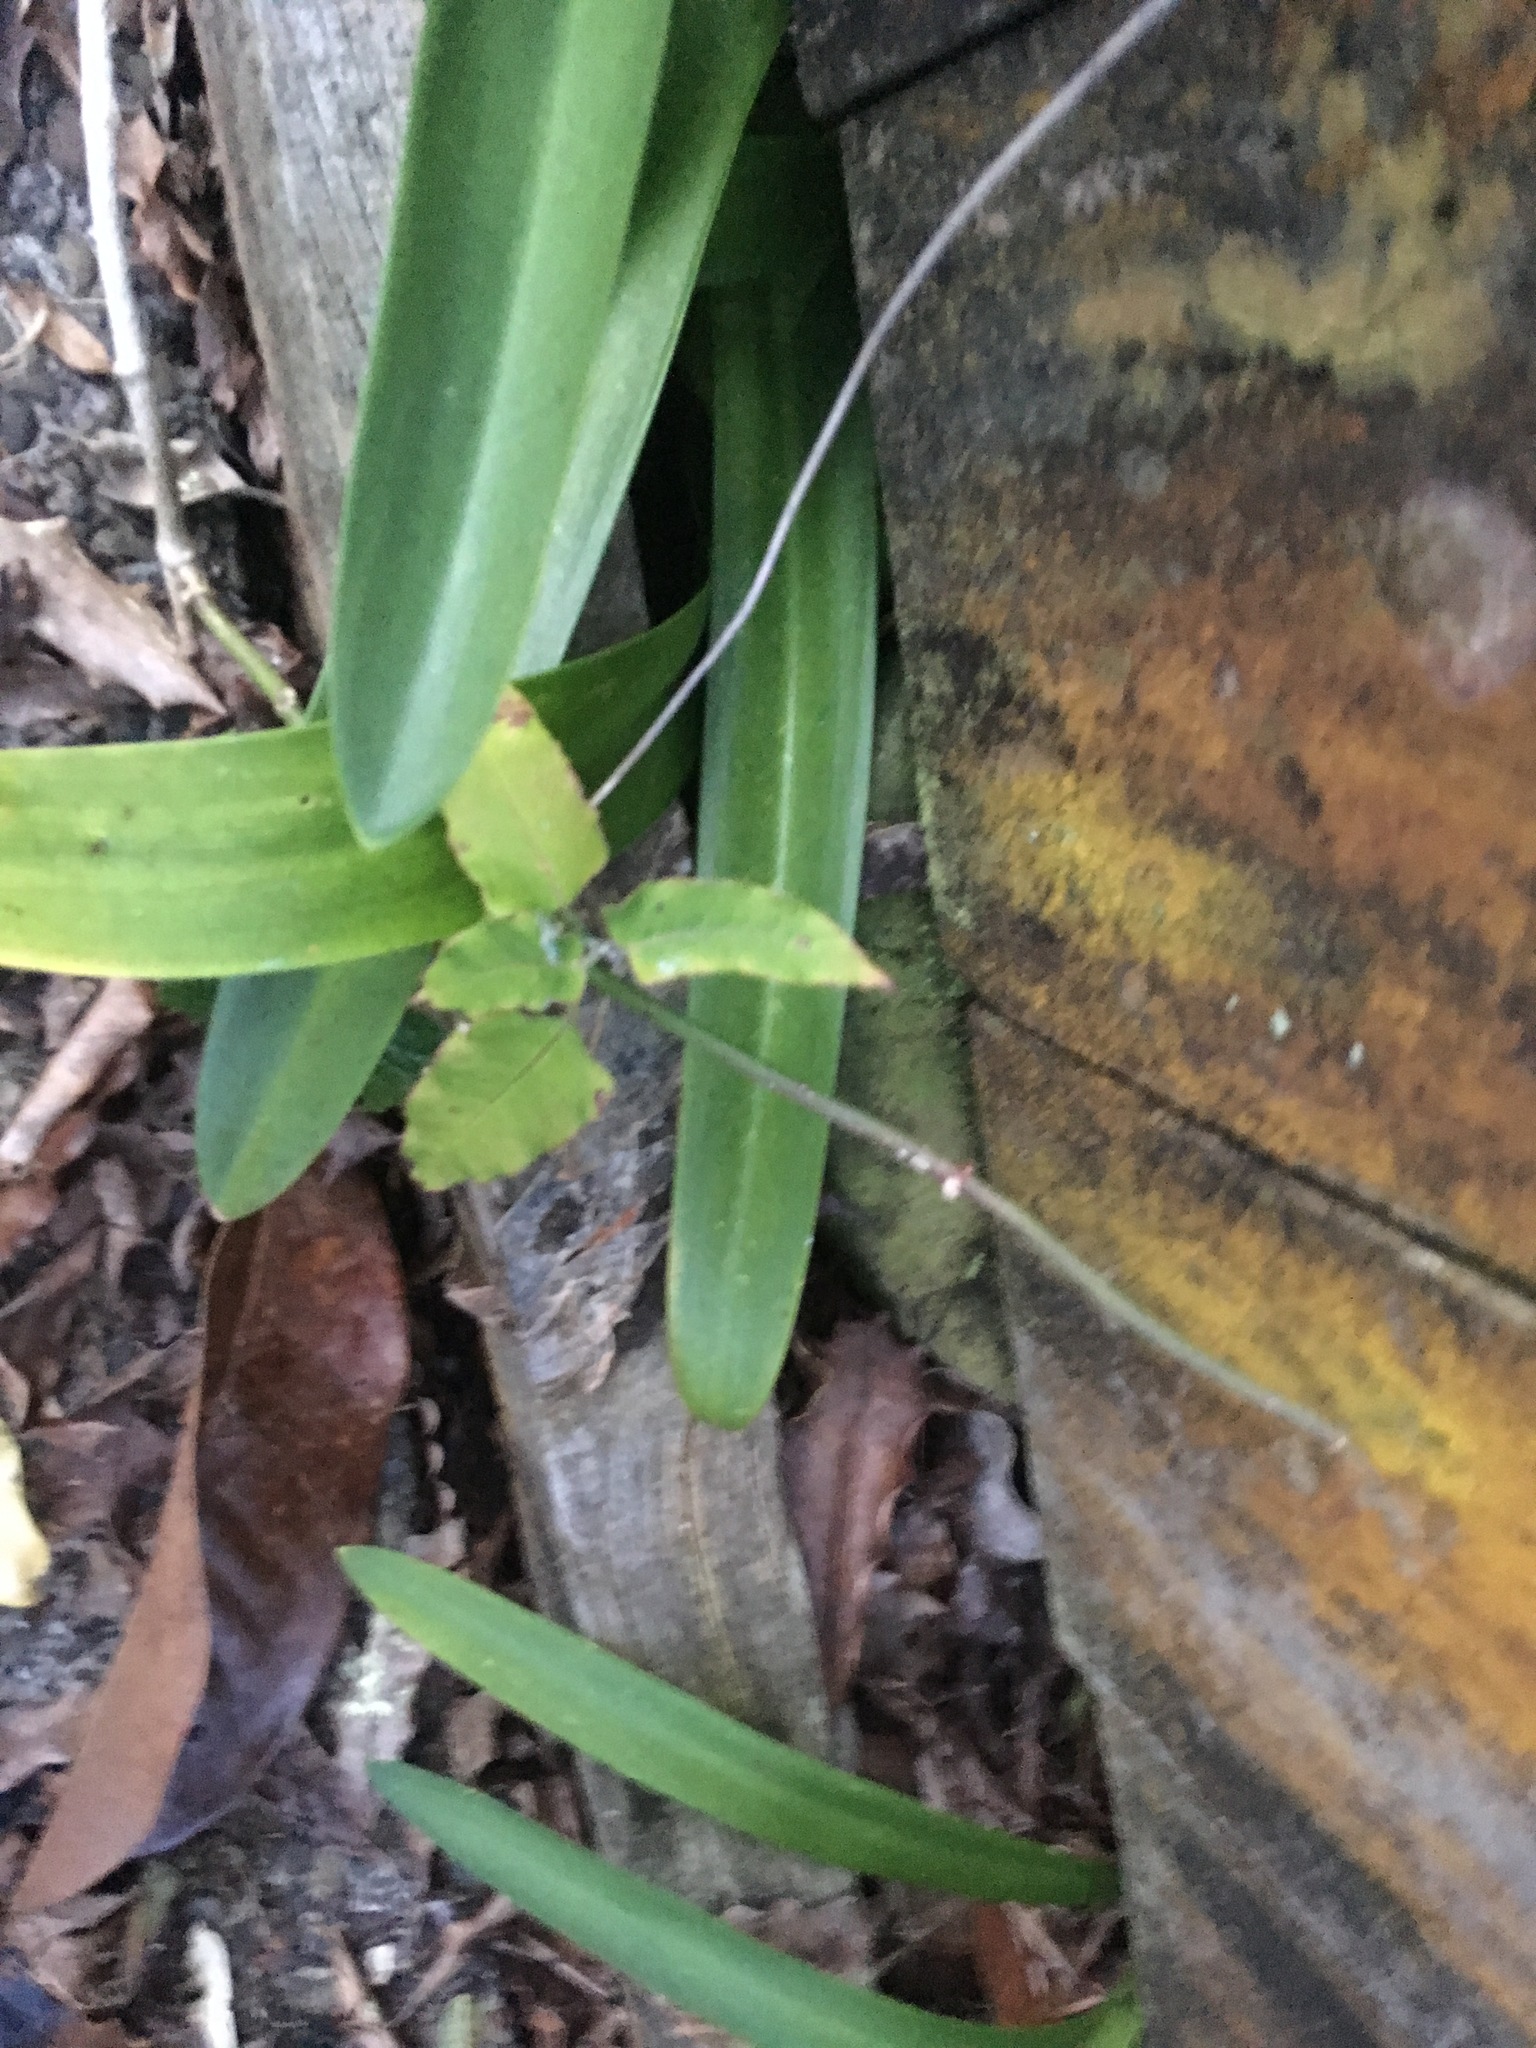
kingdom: Plantae
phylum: Tracheophyta
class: Magnoliopsida
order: Gentianales
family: Apocynaceae
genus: Araujia
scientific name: Araujia sericifera
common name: White bladderflower
